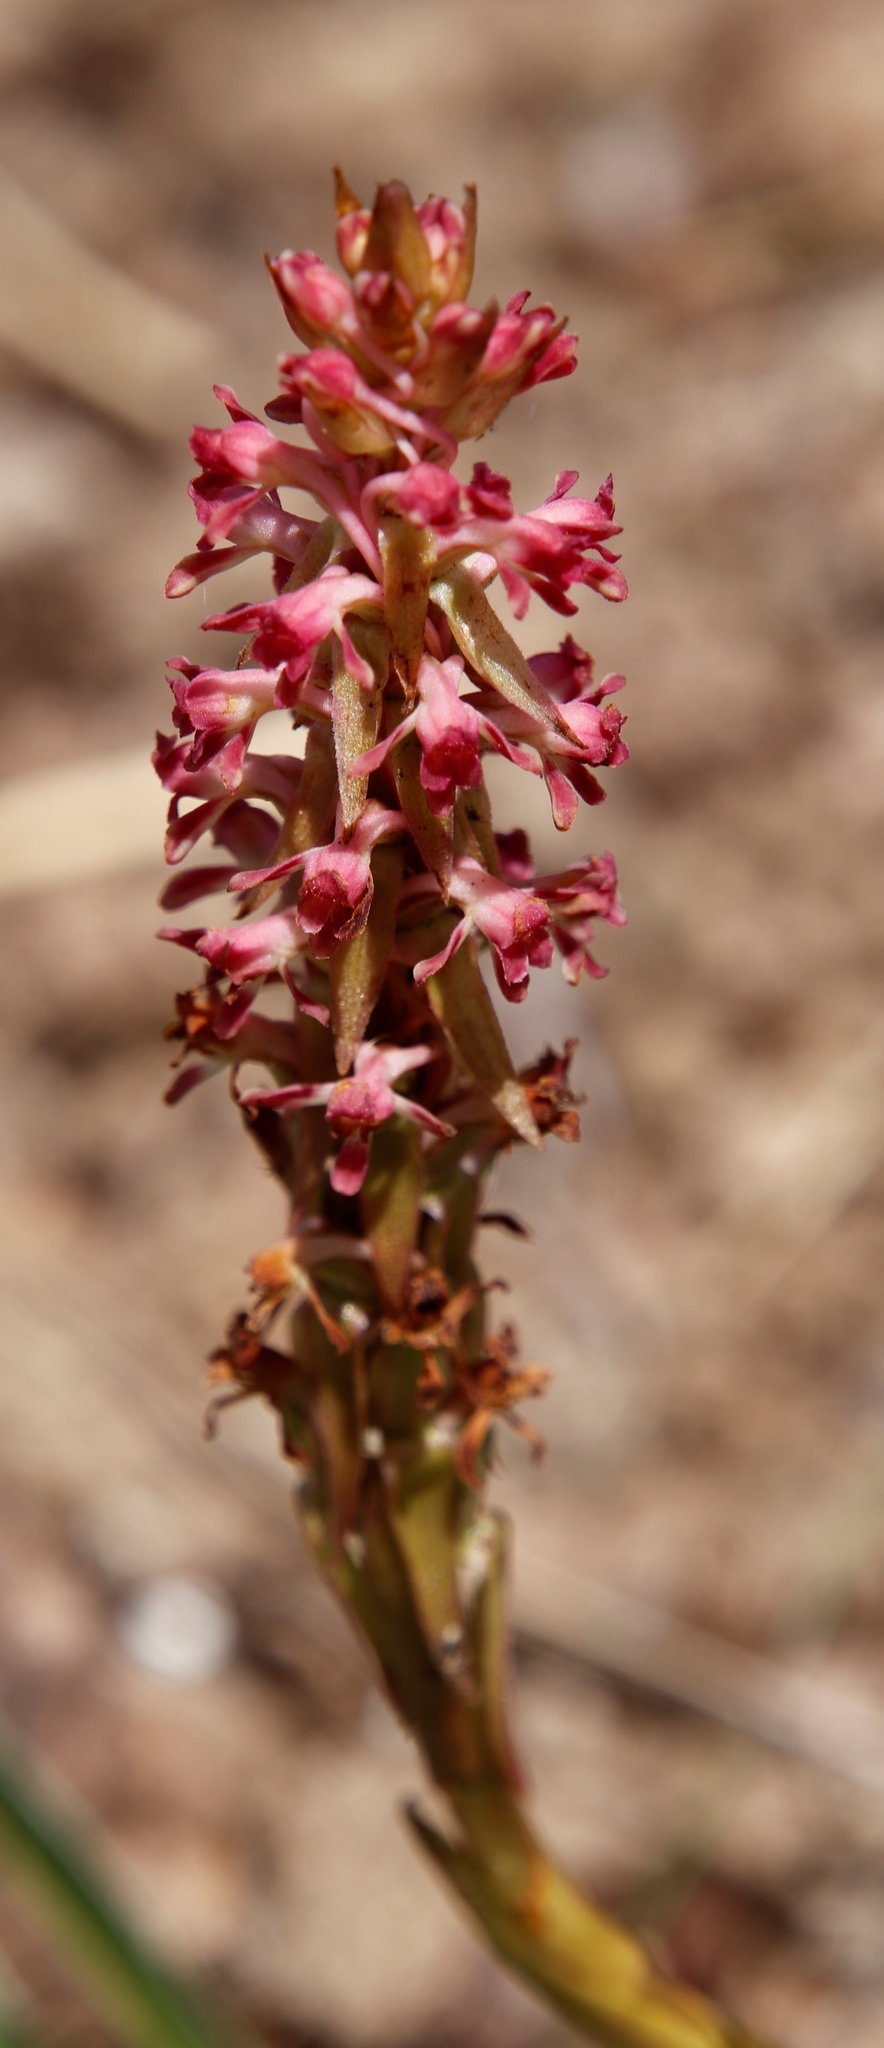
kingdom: Plantae
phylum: Tracheophyta
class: Liliopsida
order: Asparagales
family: Orchidaceae
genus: Satyrium
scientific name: Satyrium longicauda
